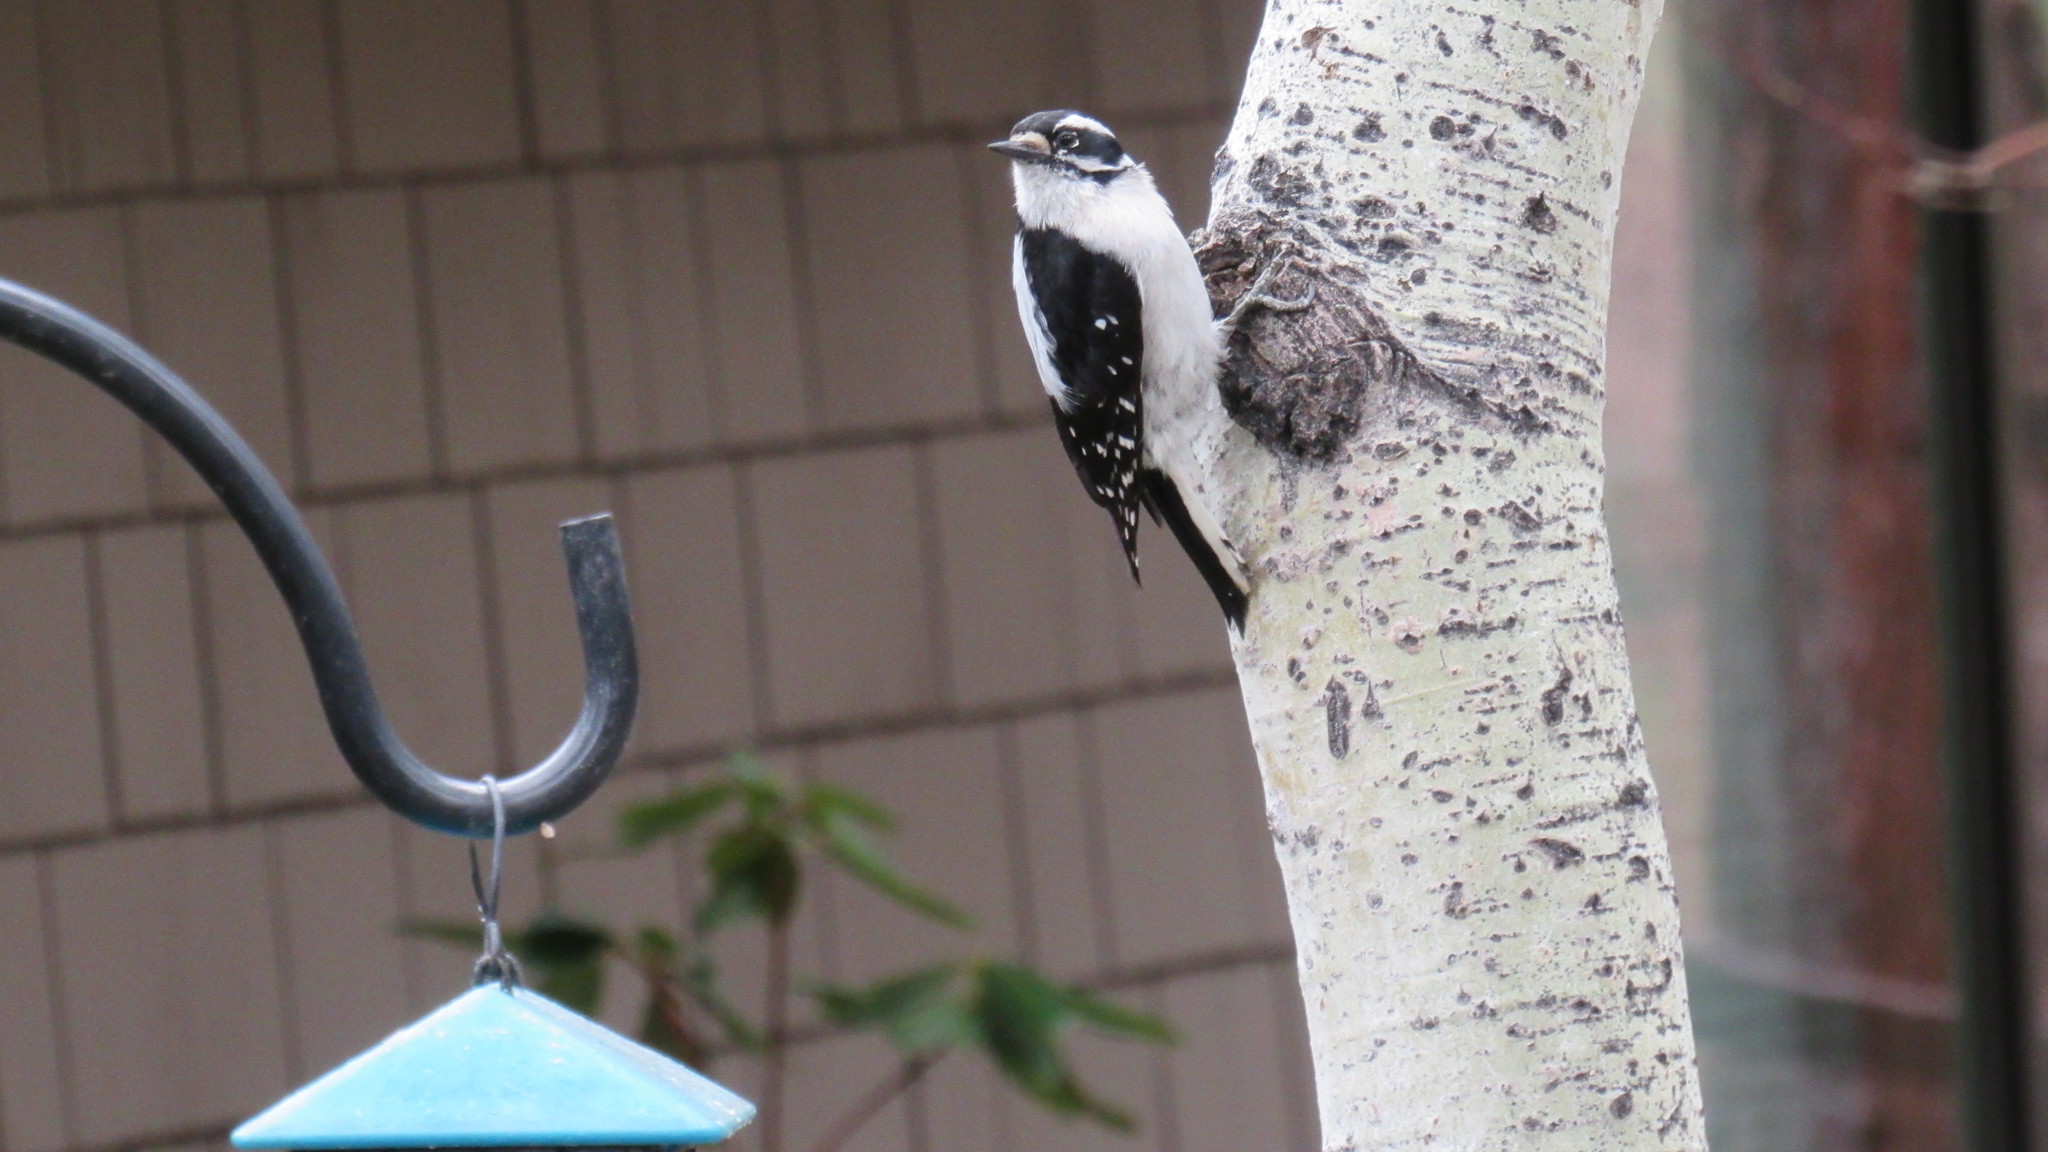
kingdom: Animalia
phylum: Chordata
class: Aves
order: Piciformes
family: Picidae
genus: Dryobates
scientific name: Dryobates pubescens
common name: Downy woodpecker
